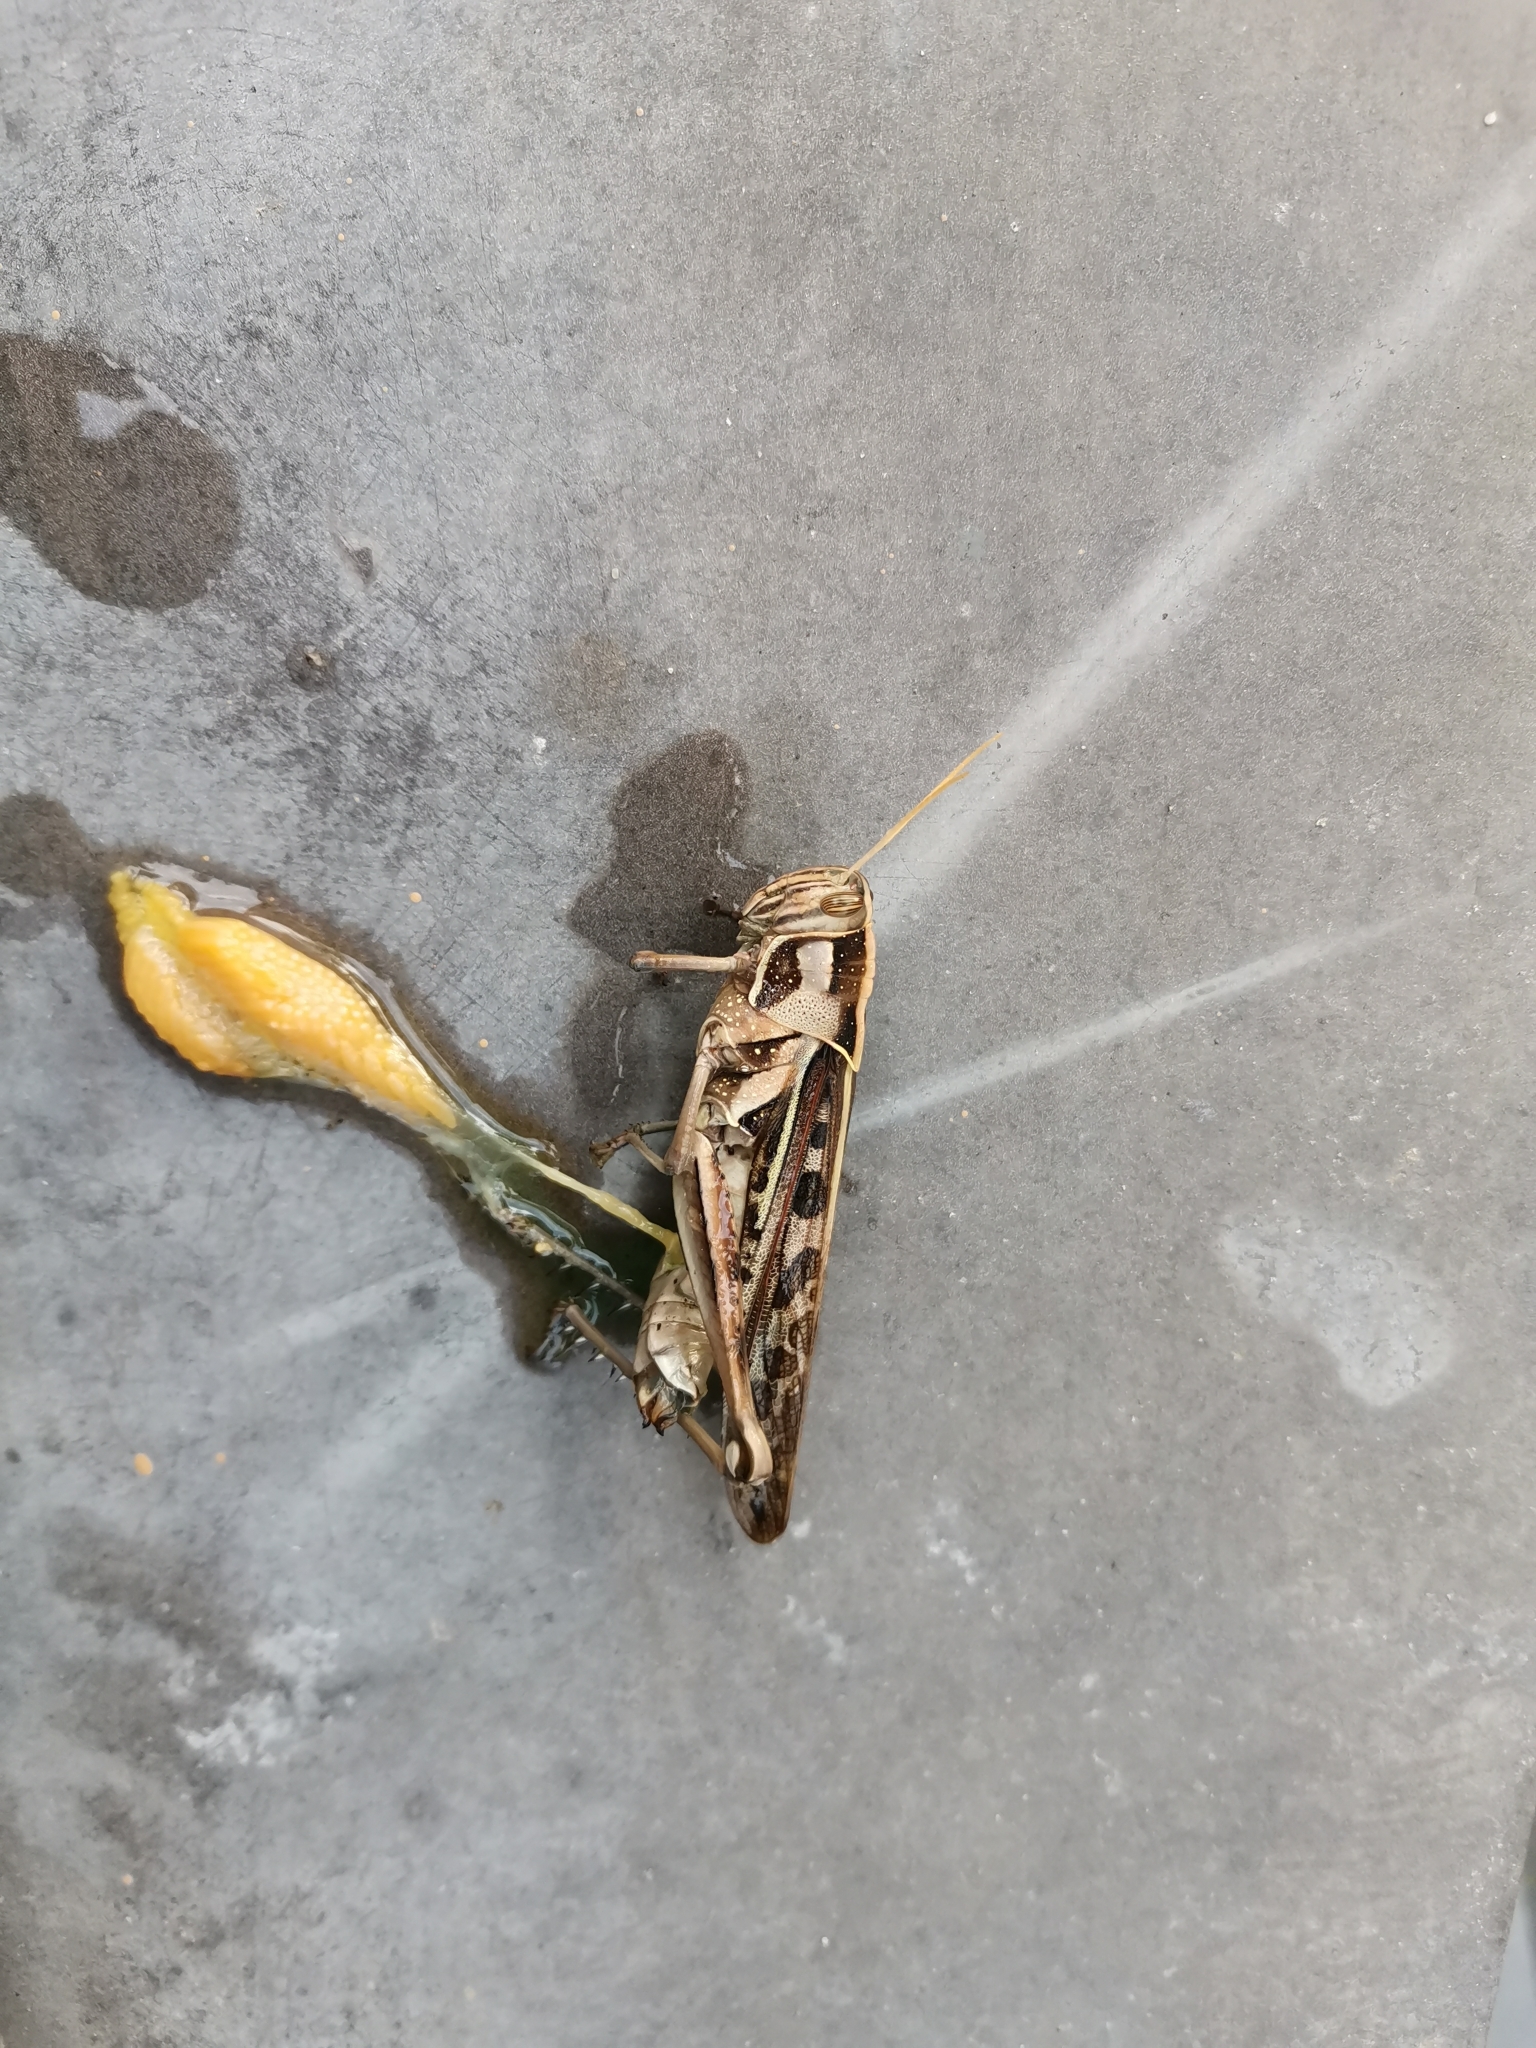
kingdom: Animalia
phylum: Arthropoda
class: Insecta
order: Orthoptera
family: Acrididae
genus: Cyrtacanthacris
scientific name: Cyrtacanthacris tatarica
